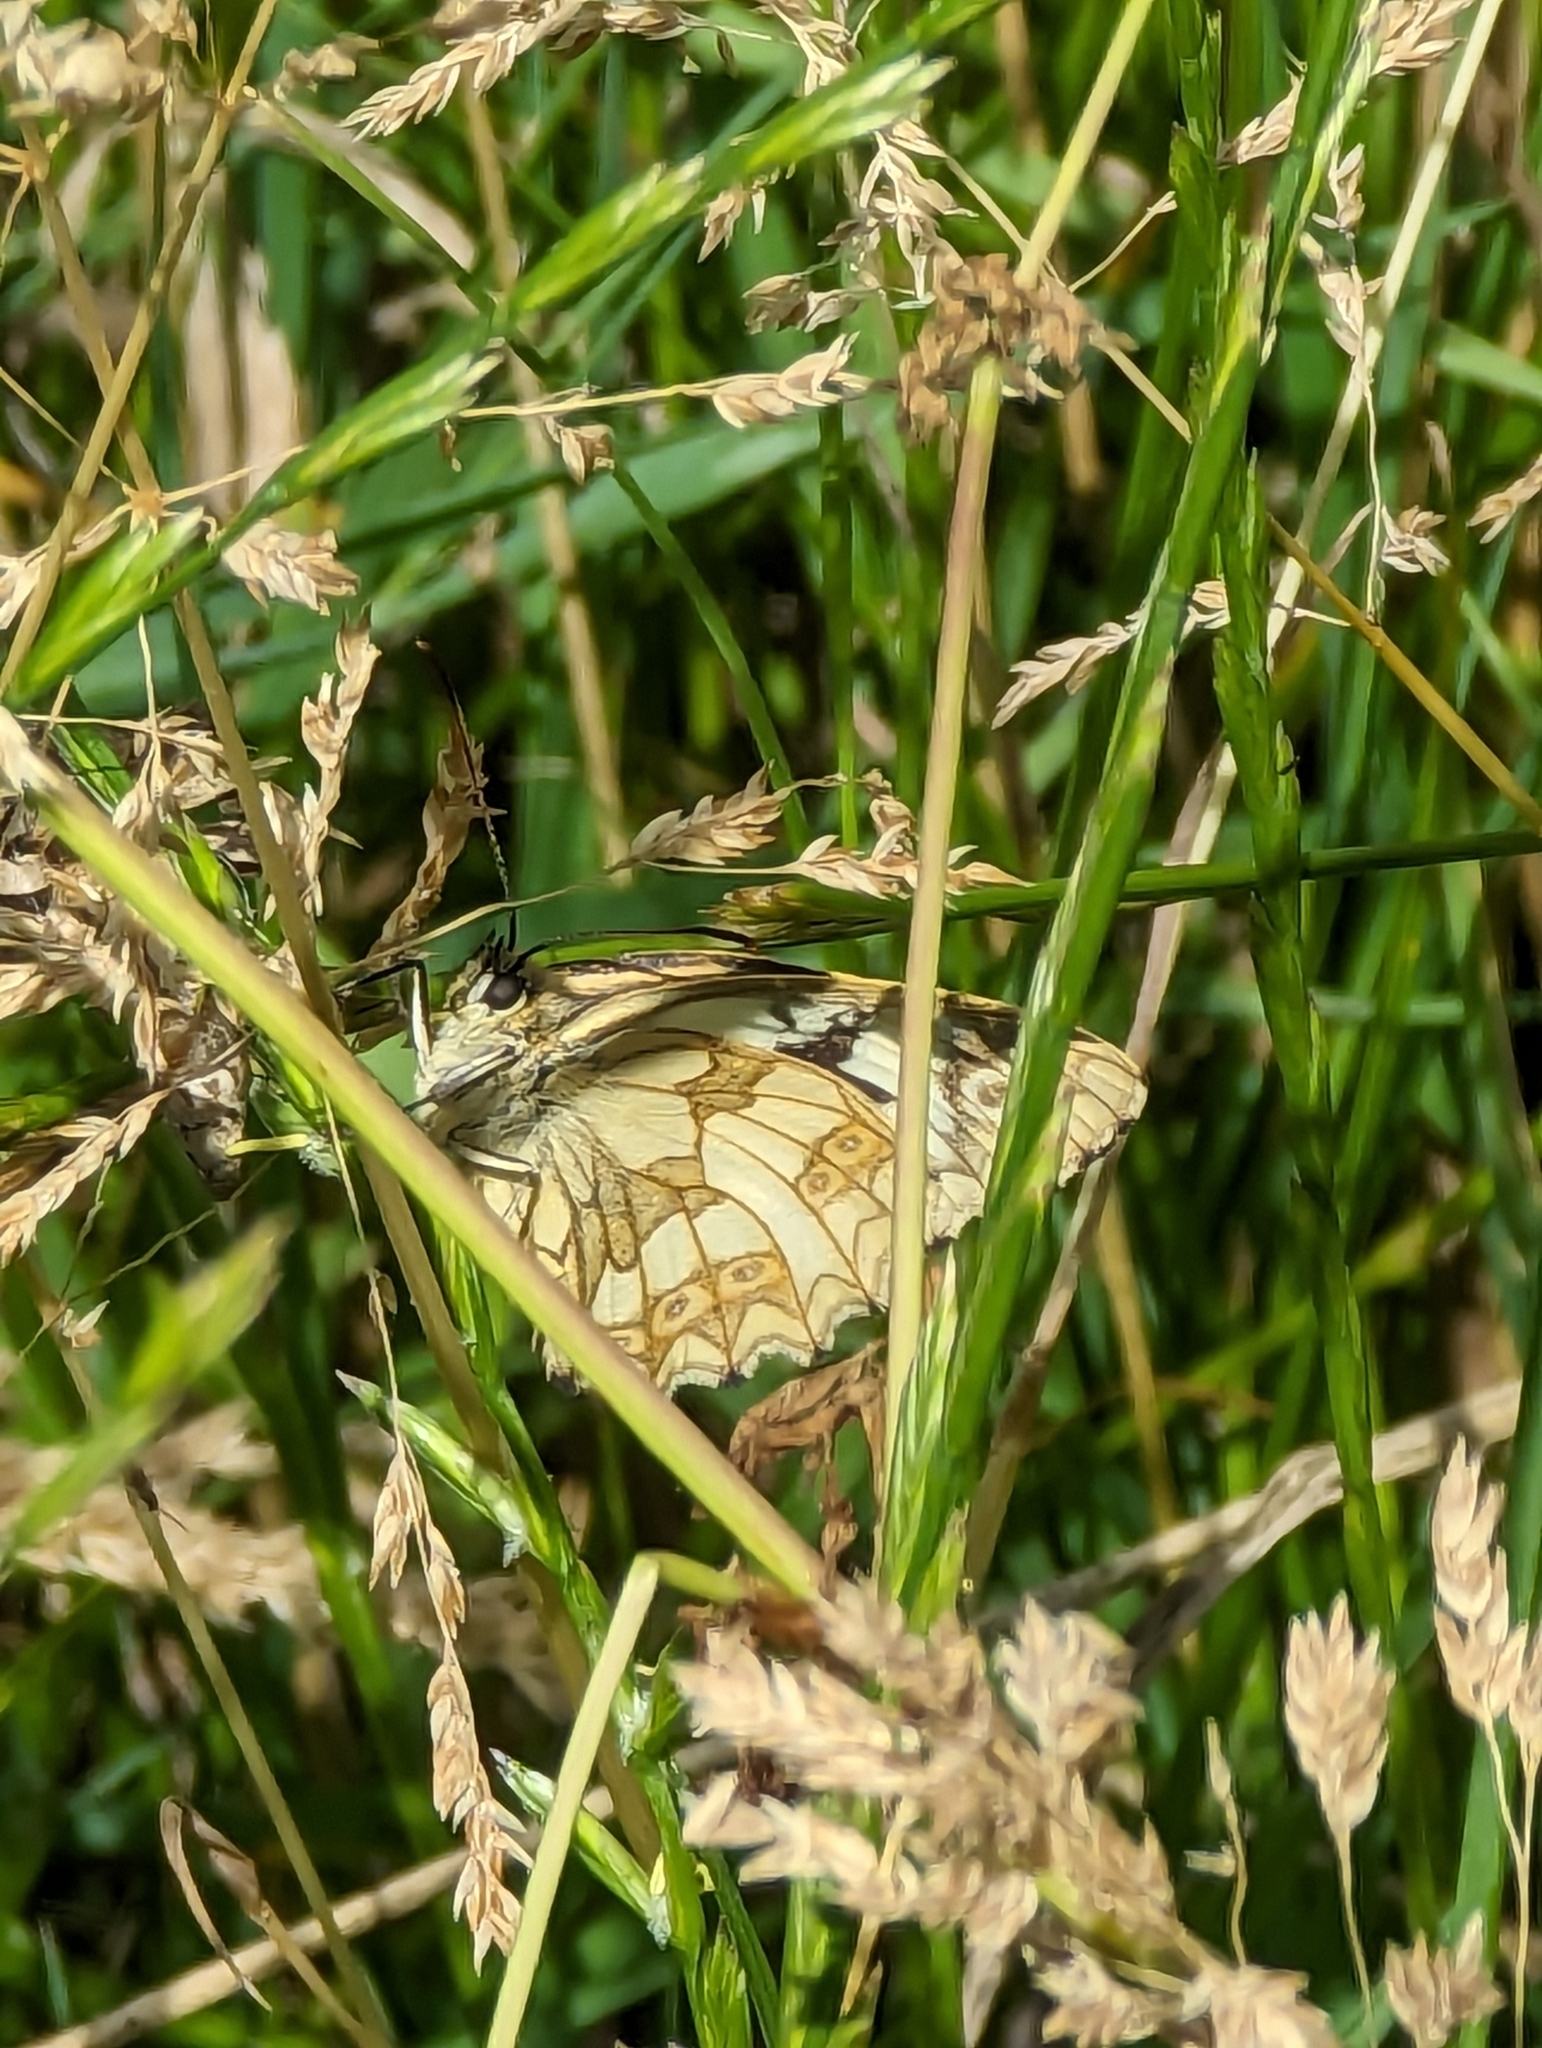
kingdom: Animalia
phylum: Arthropoda
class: Insecta
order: Lepidoptera
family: Nymphalidae
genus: Melanargia
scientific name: Melanargia galathea
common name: Marbled white
